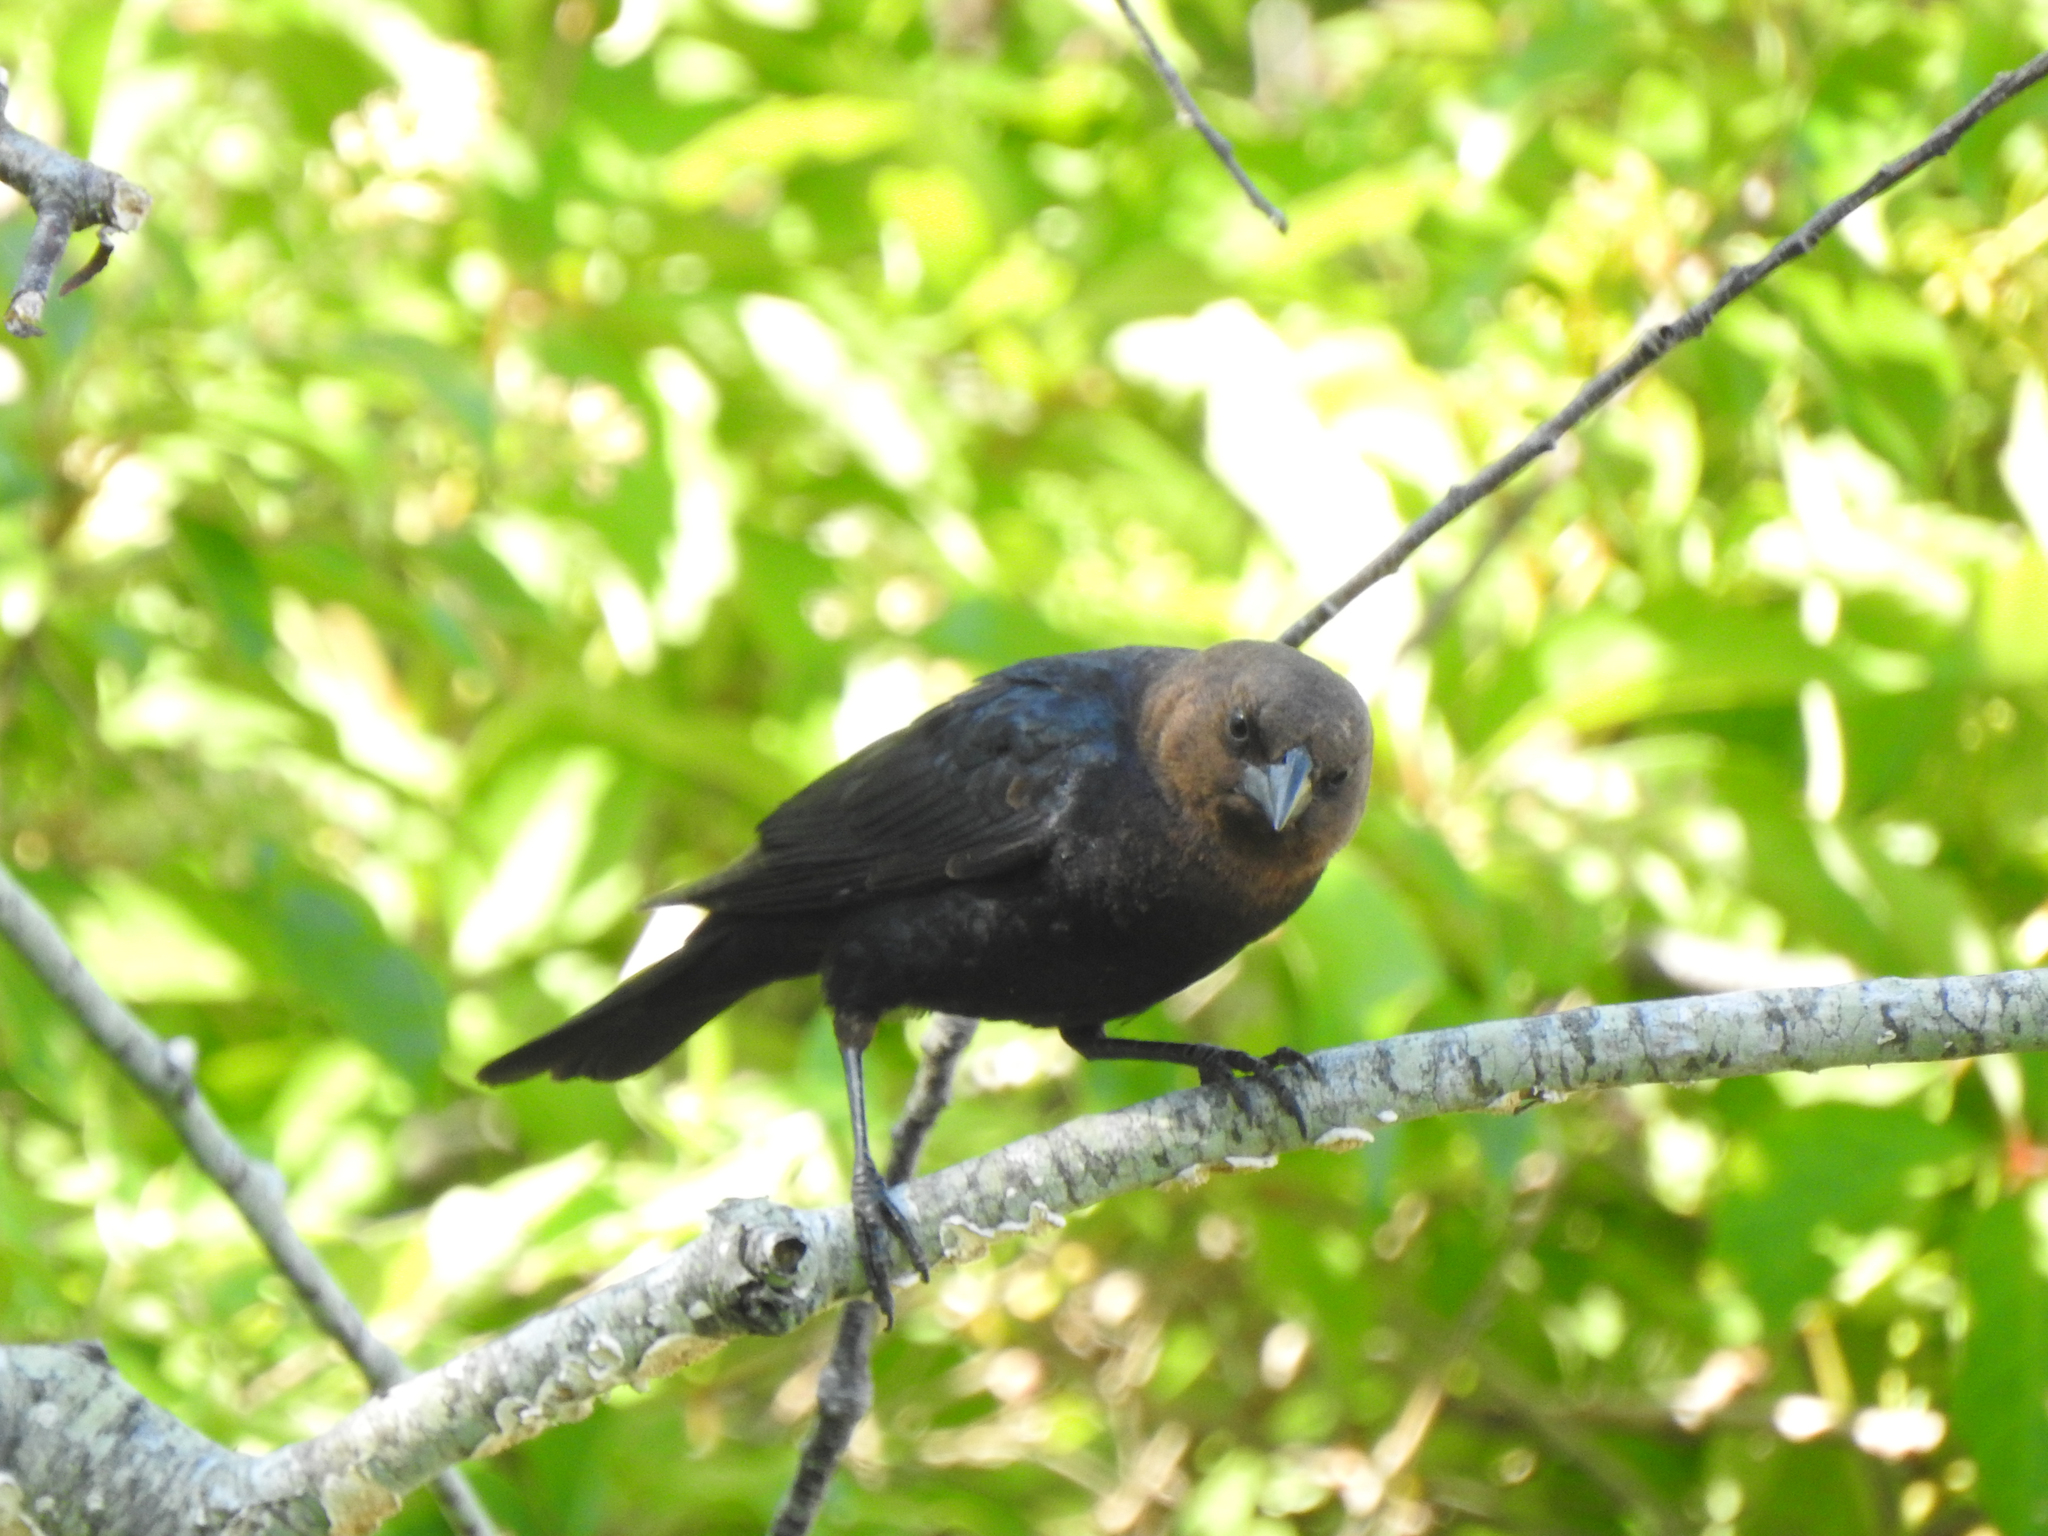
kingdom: Animalia
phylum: Chordata
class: Aves
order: Passeriformes
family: Icteridae
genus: Molothrus
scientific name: Molothrus ater
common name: Brown-headed cowbird
